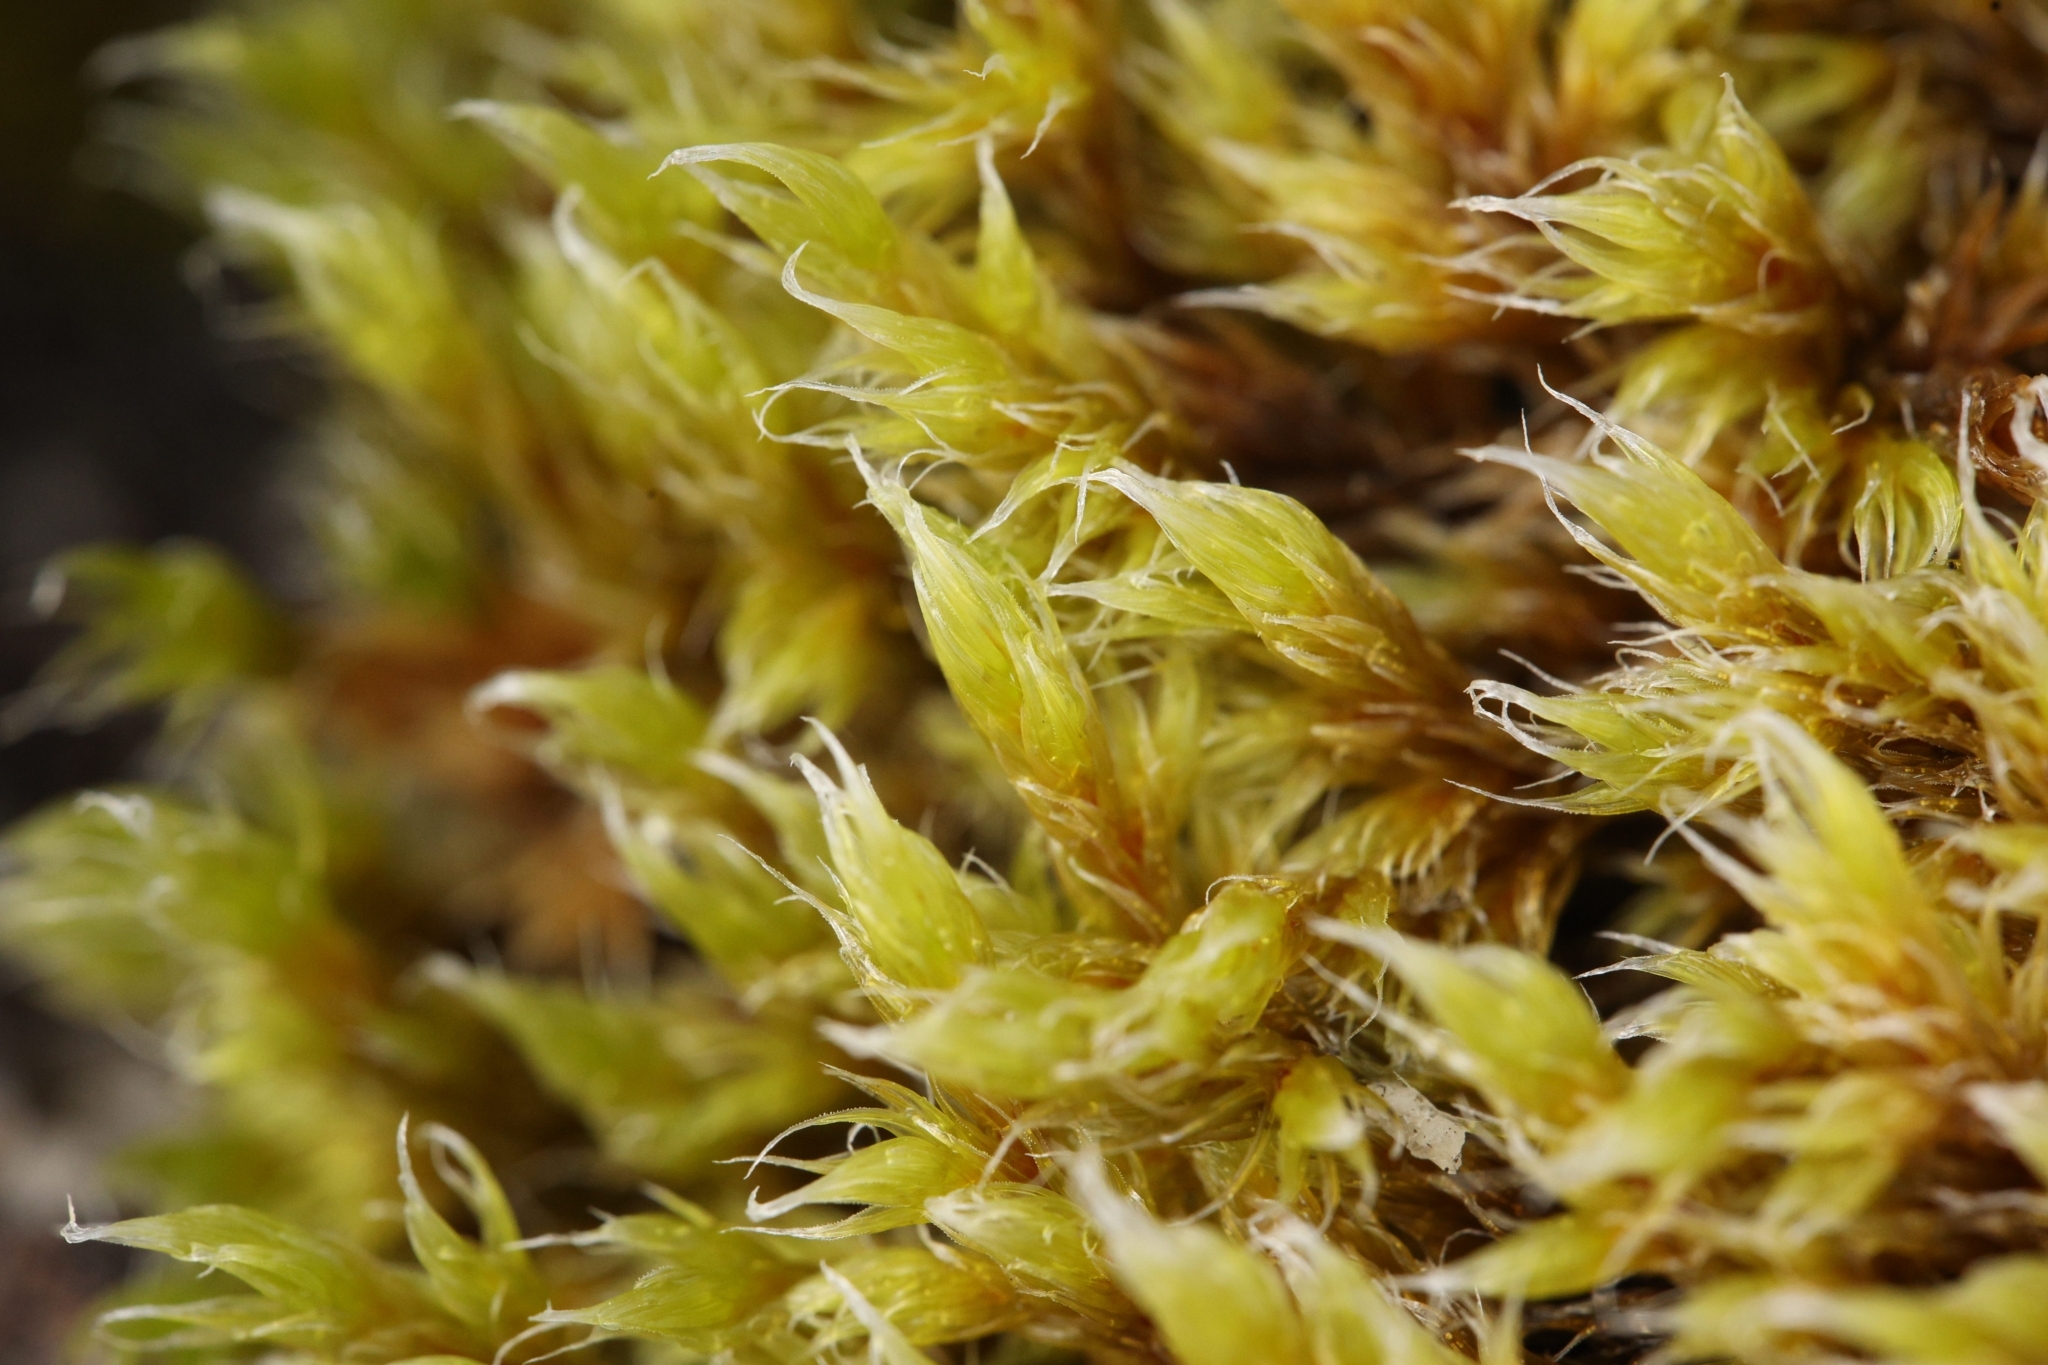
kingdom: Plantae
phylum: Bryophyta
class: Bryopsida
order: Grimmiales
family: Grimmiaceae
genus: Racomitrium
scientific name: Racomitrium lanuginosum
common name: Hoary rock moss
